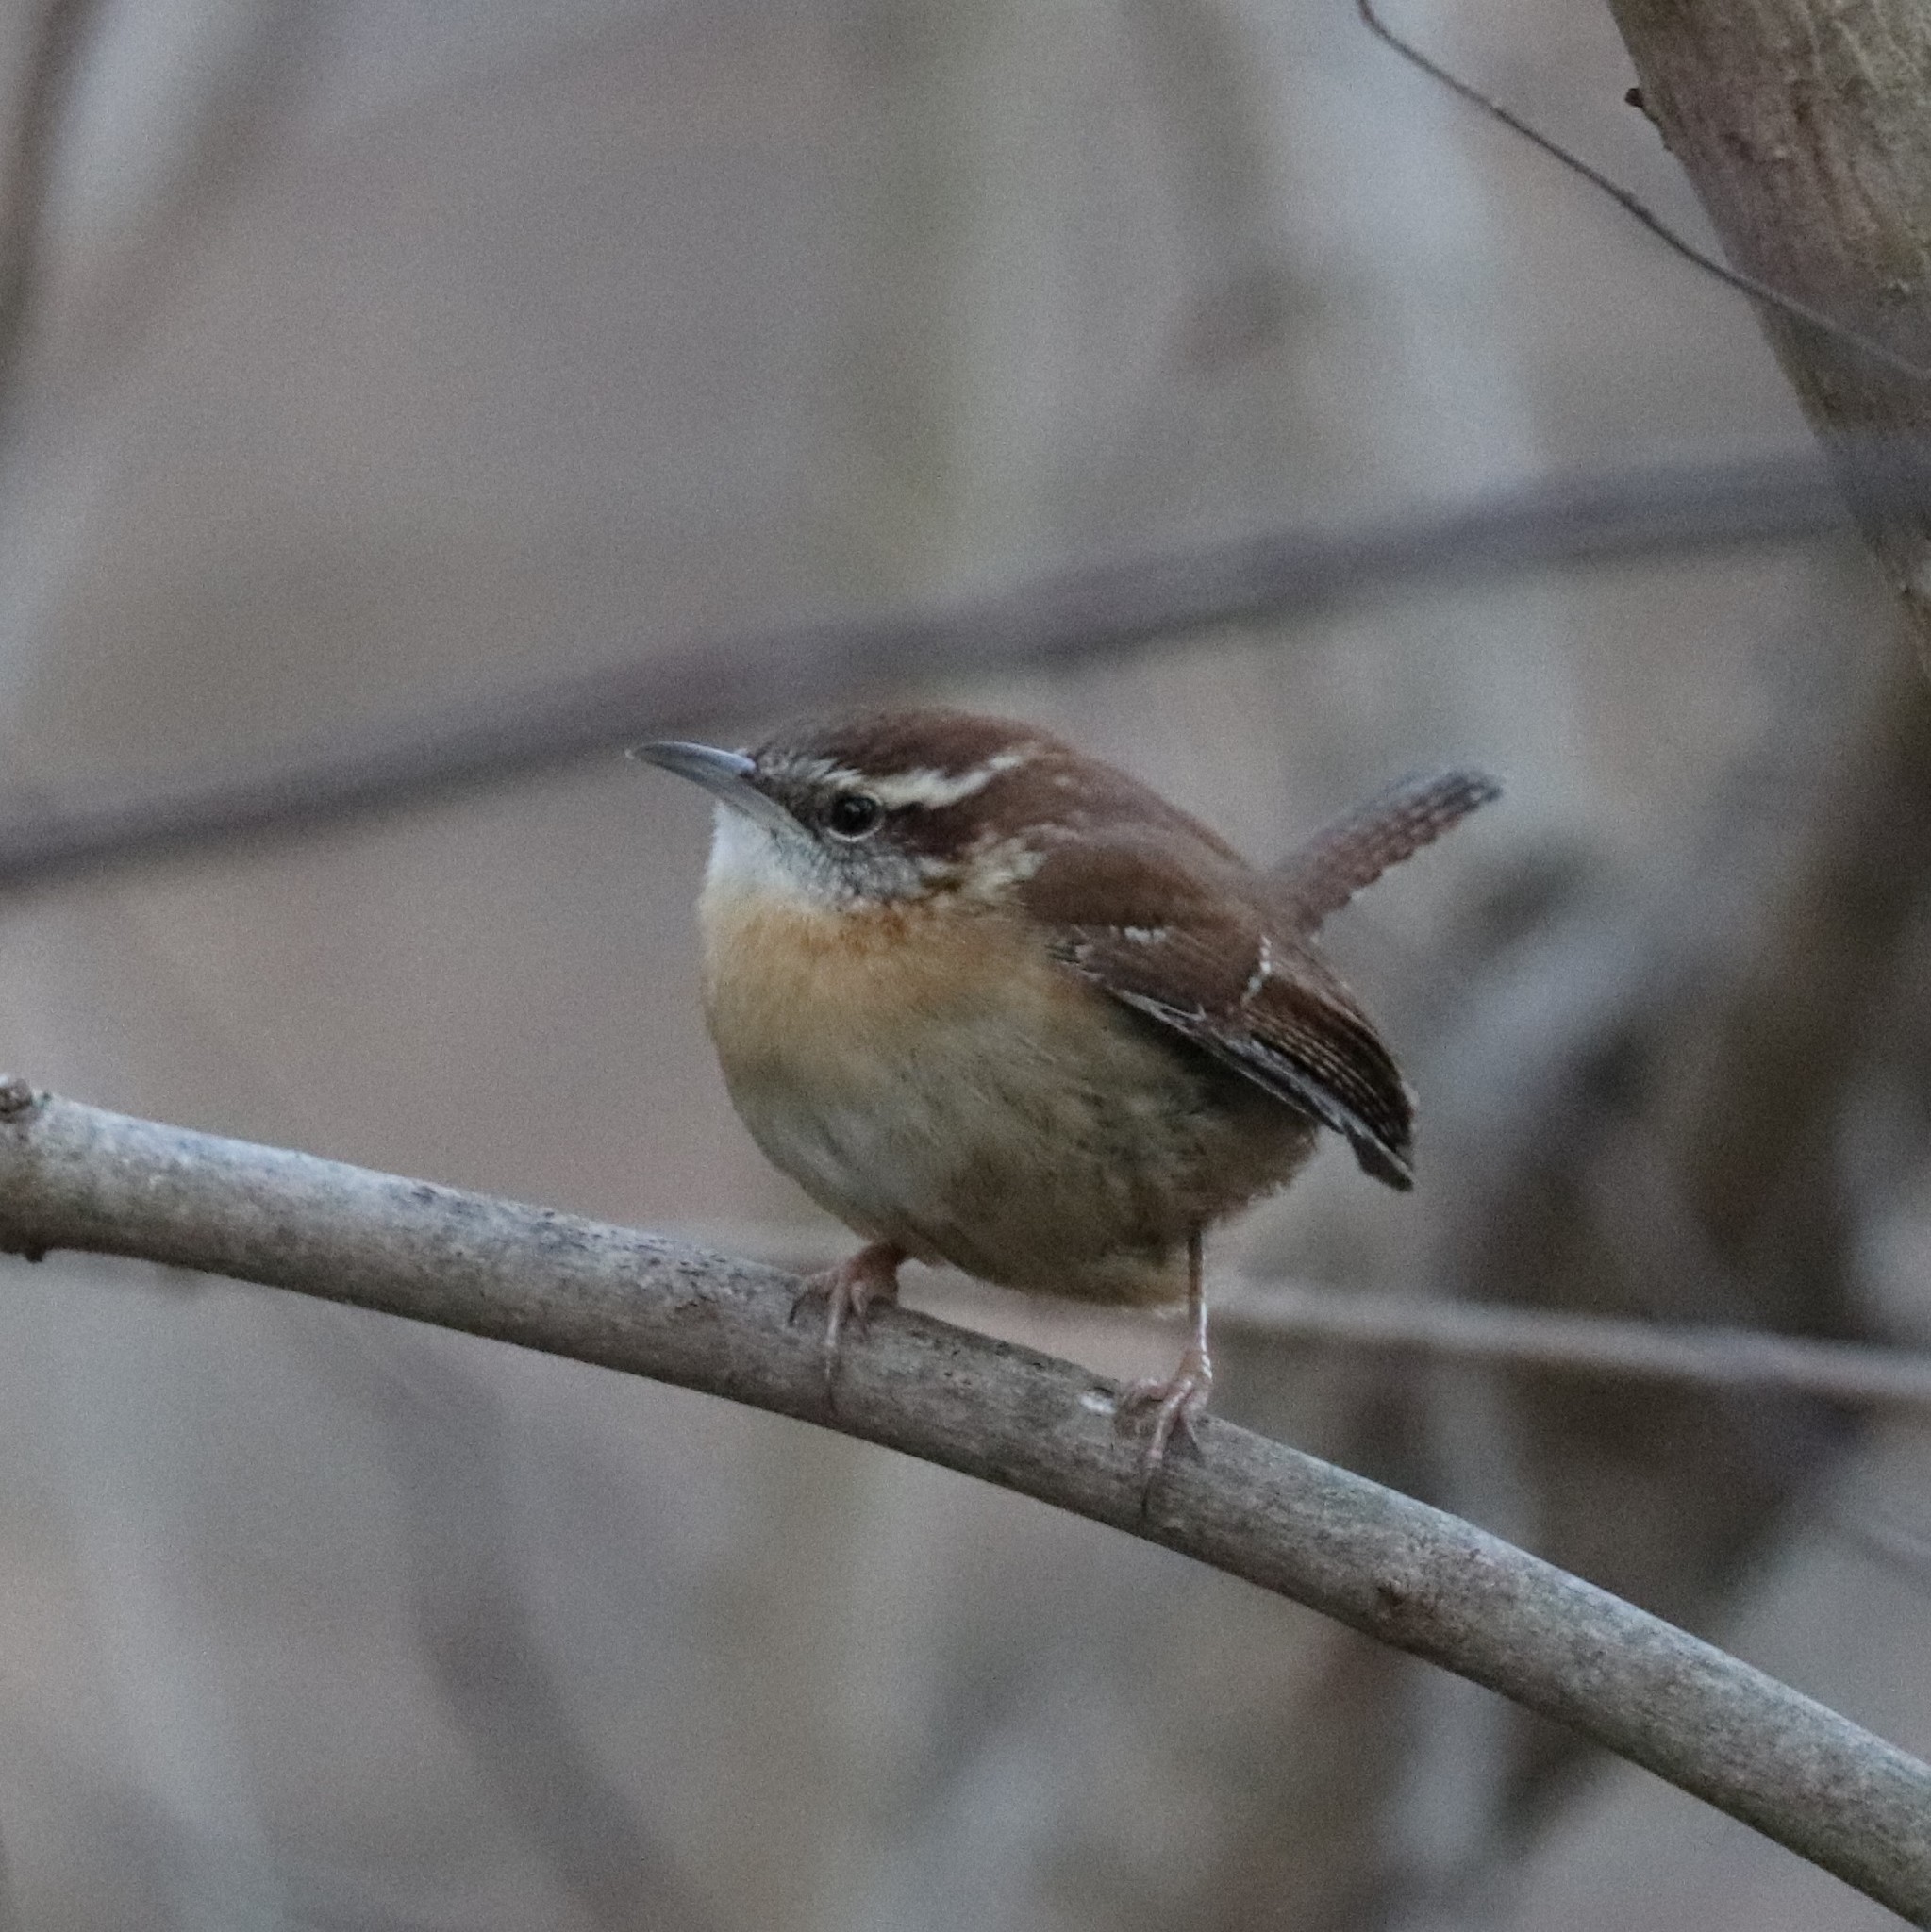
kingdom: Animalia
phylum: Chordata
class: Aves
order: Passeriformes
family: Troglodytidae
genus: Thryothorus
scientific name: Thryothorus ludovicianus
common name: Carolina wren
